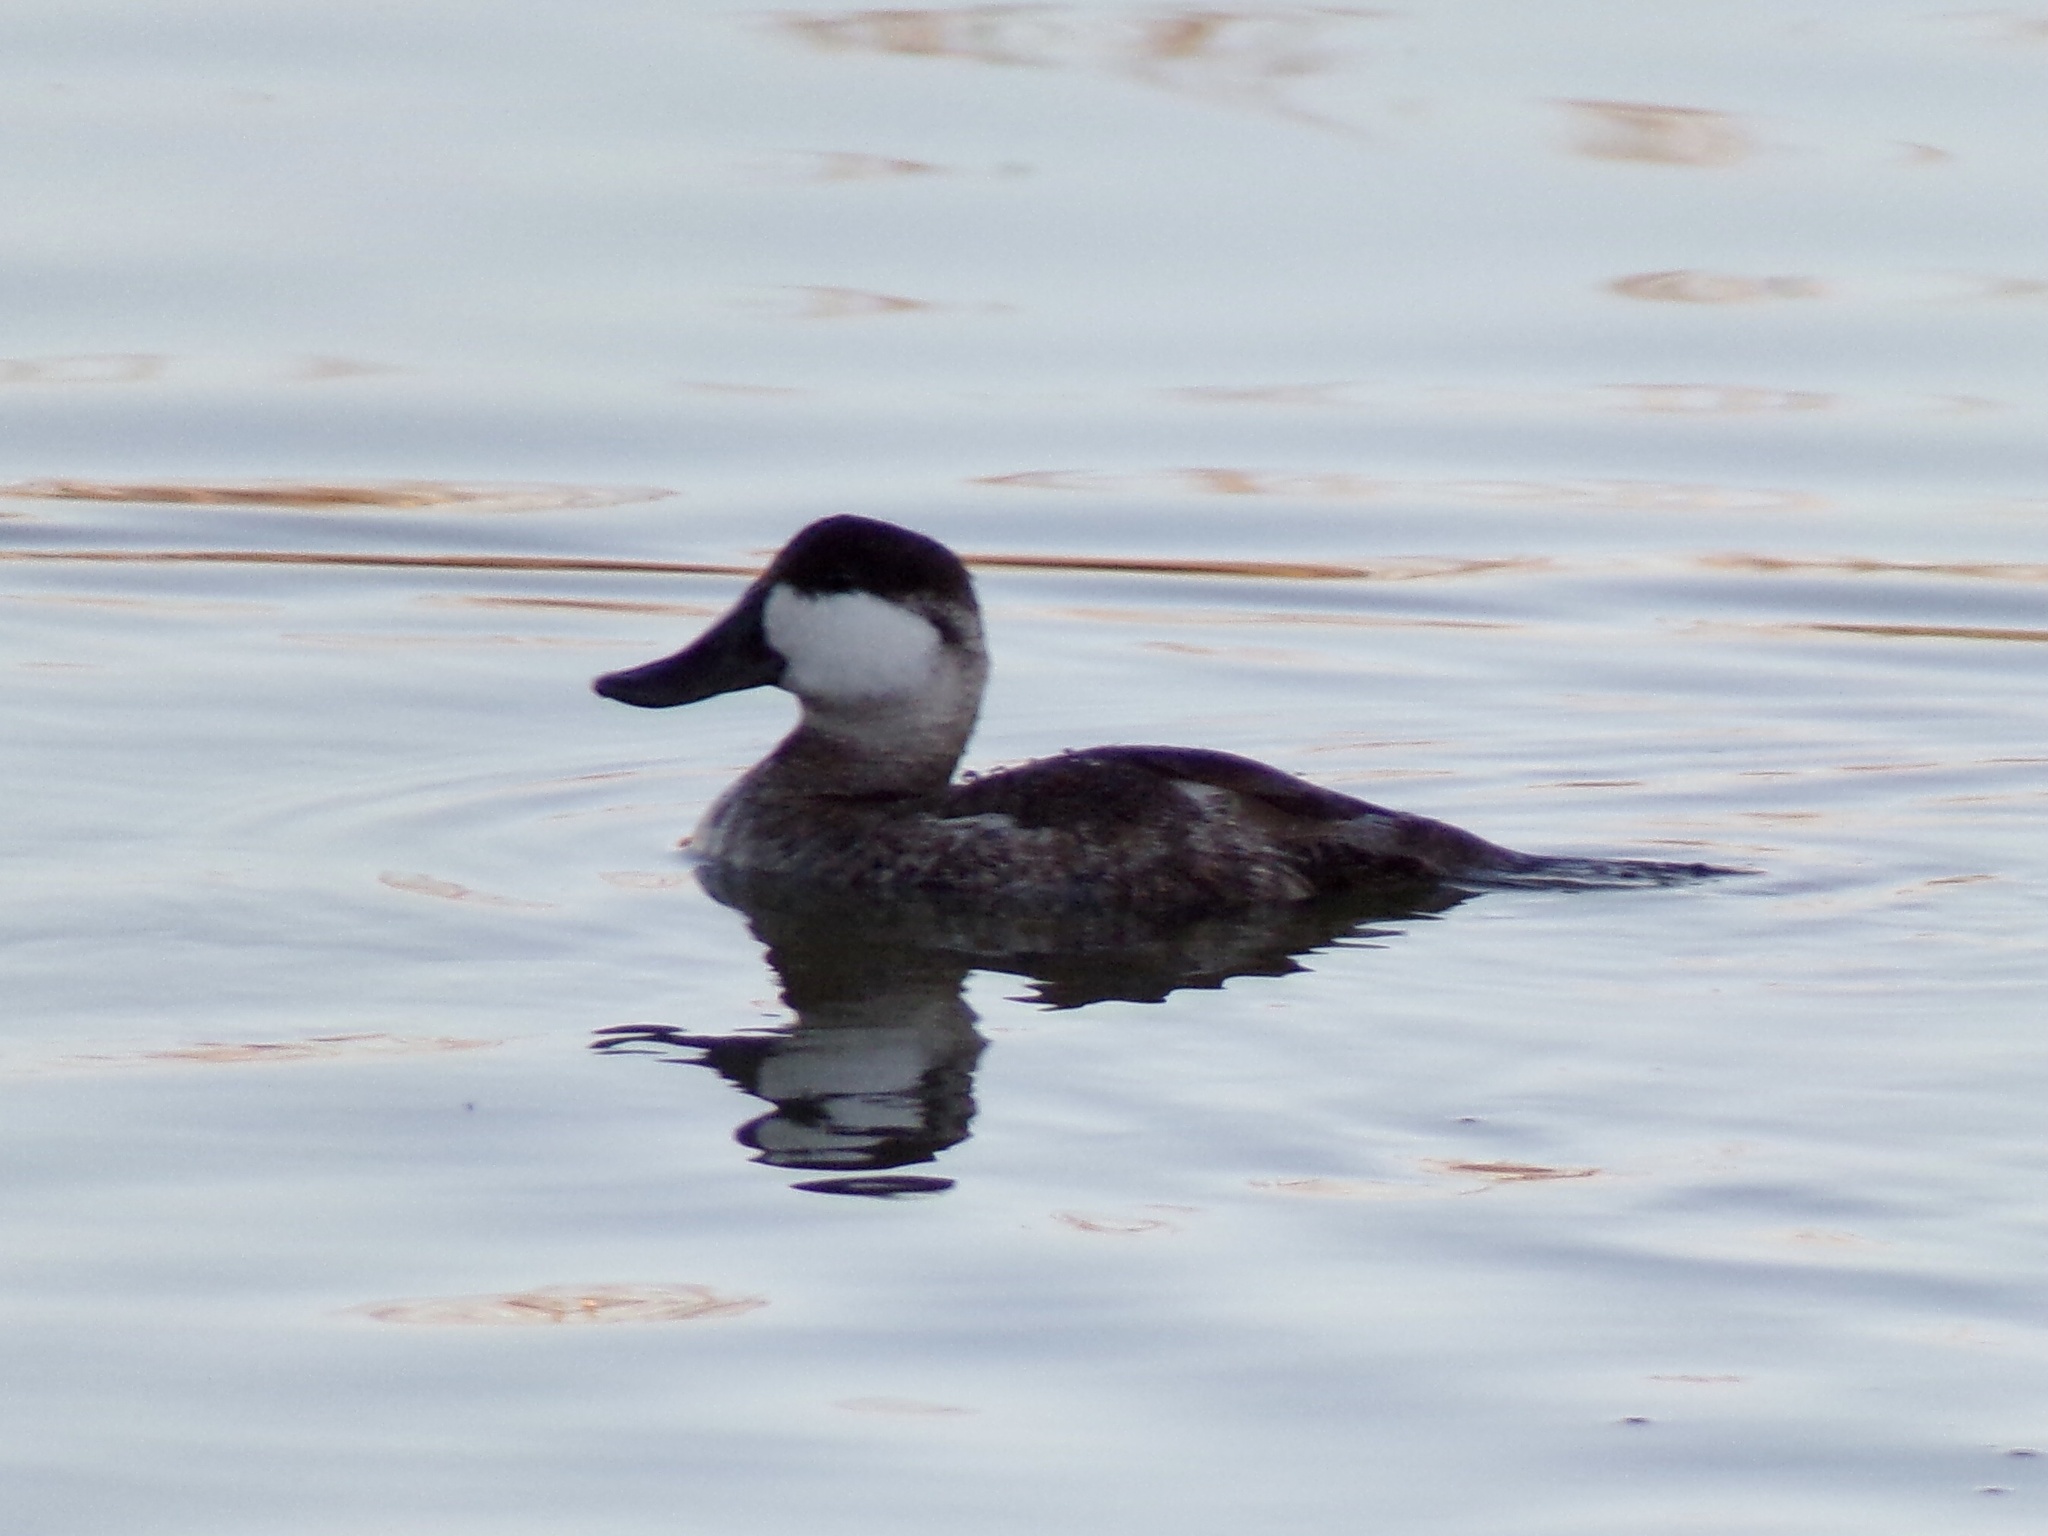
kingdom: Animalia
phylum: Chordata
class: Aves
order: Anseriformes
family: Anatidae
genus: Oxyura
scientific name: Oxyura jamaicensis
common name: Ruddy duck
